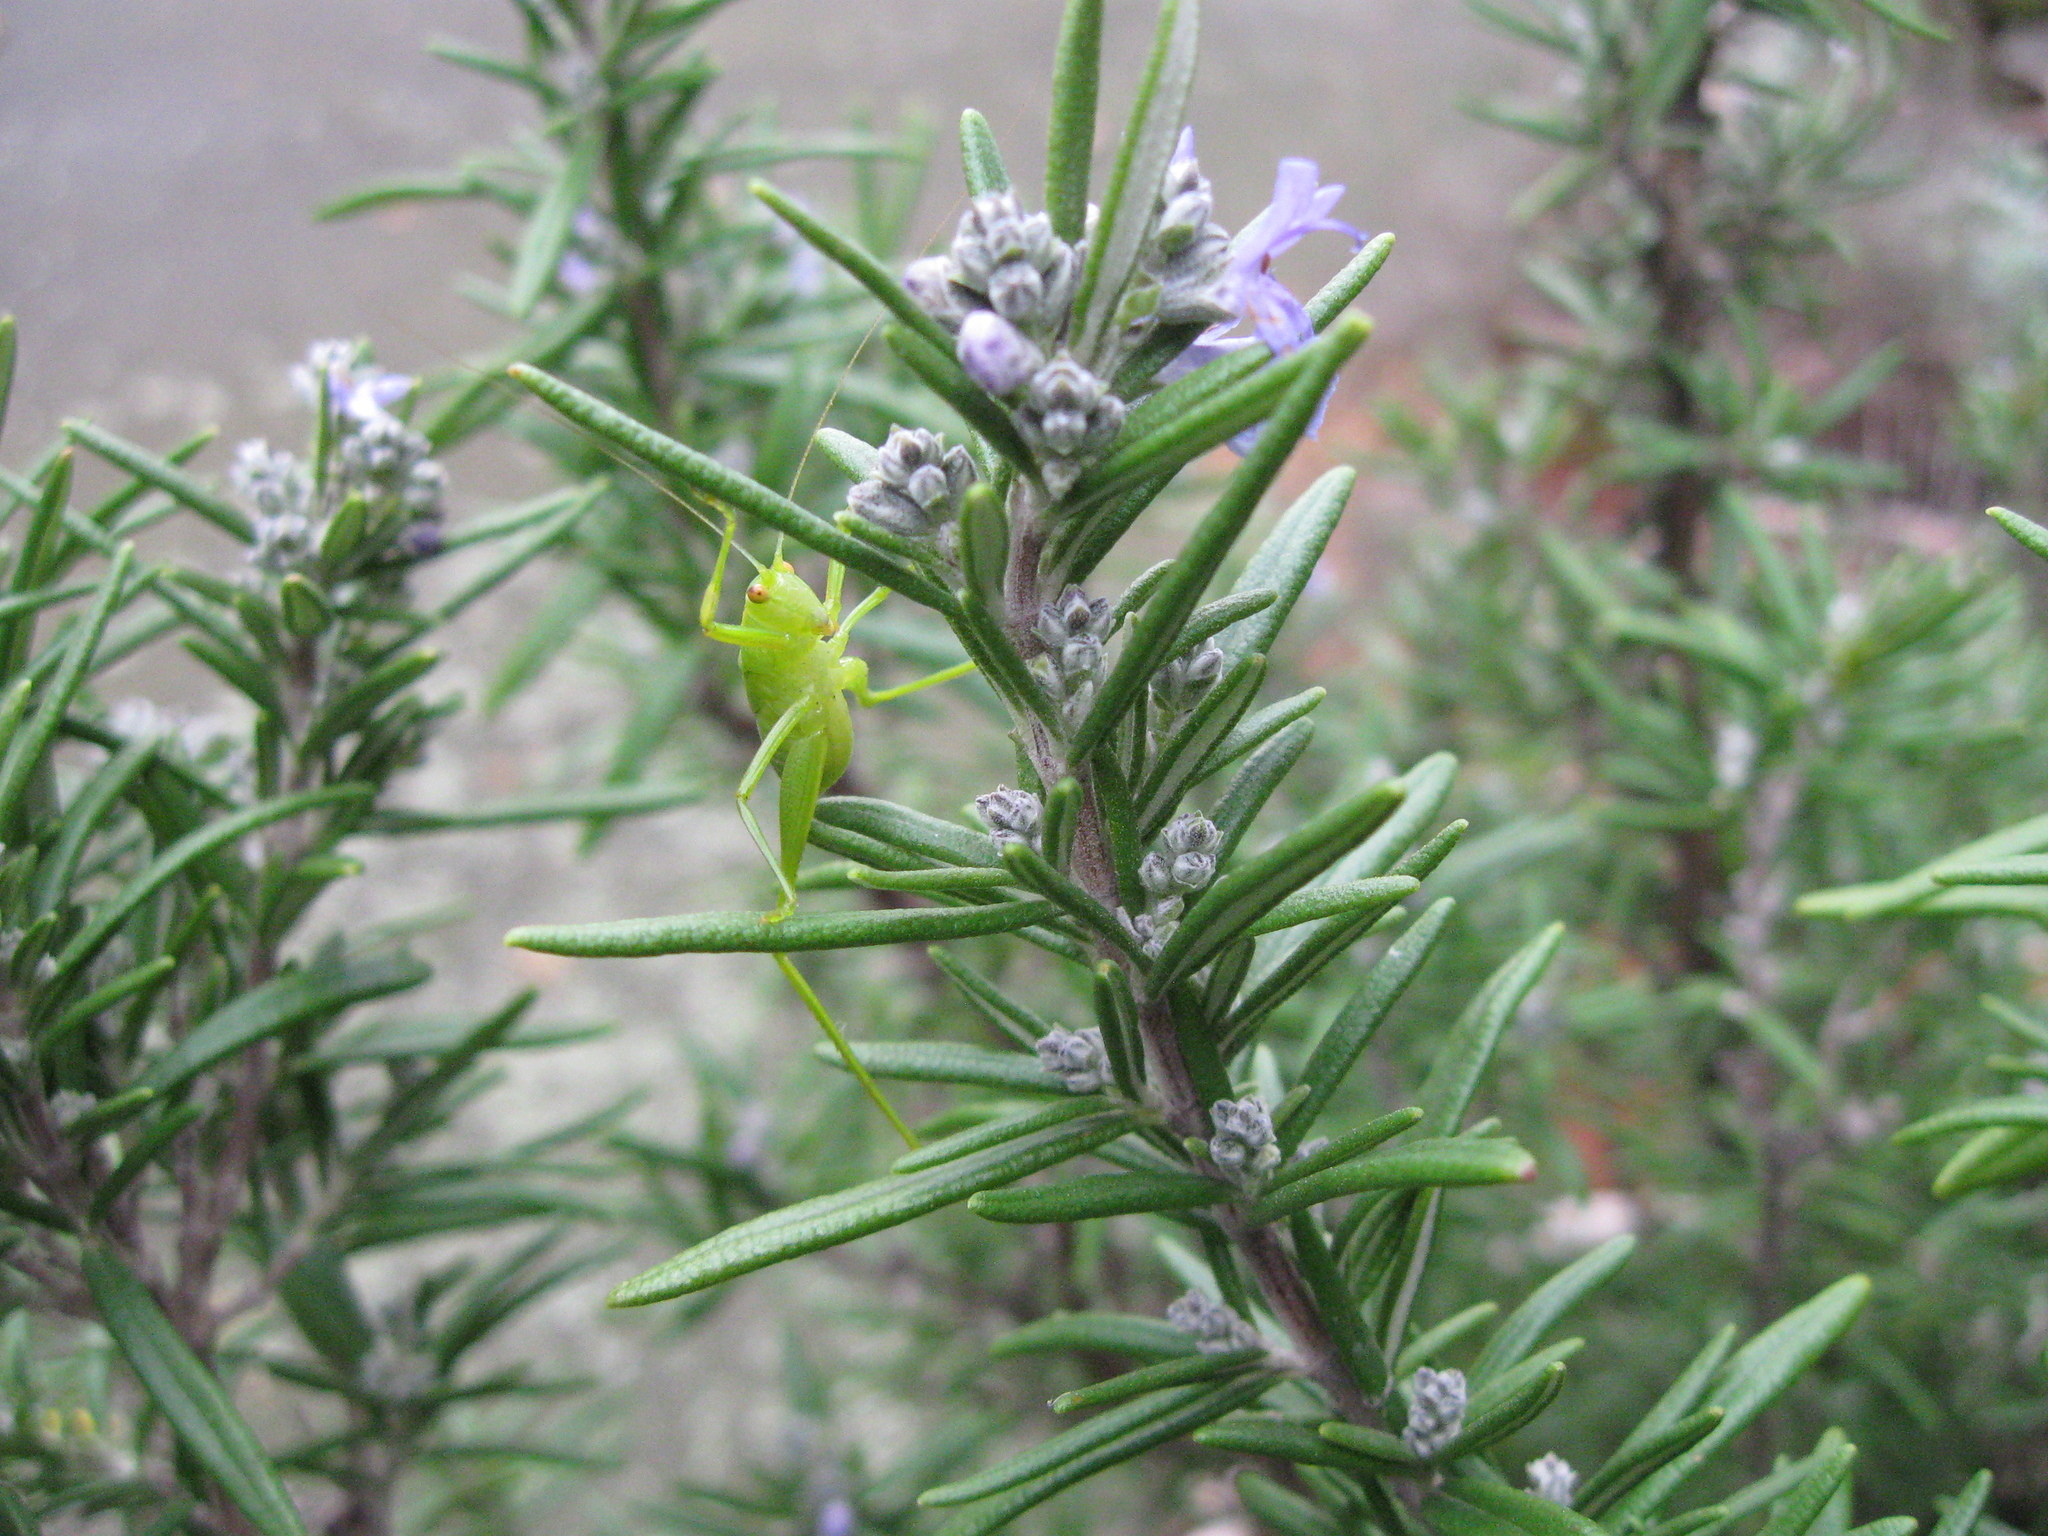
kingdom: Animalia
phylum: Arthropoda
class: Insecta
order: Orthoptera
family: Tettigoniidae
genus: Caedicia
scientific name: Caedicia simplex
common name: Common garden katydid
